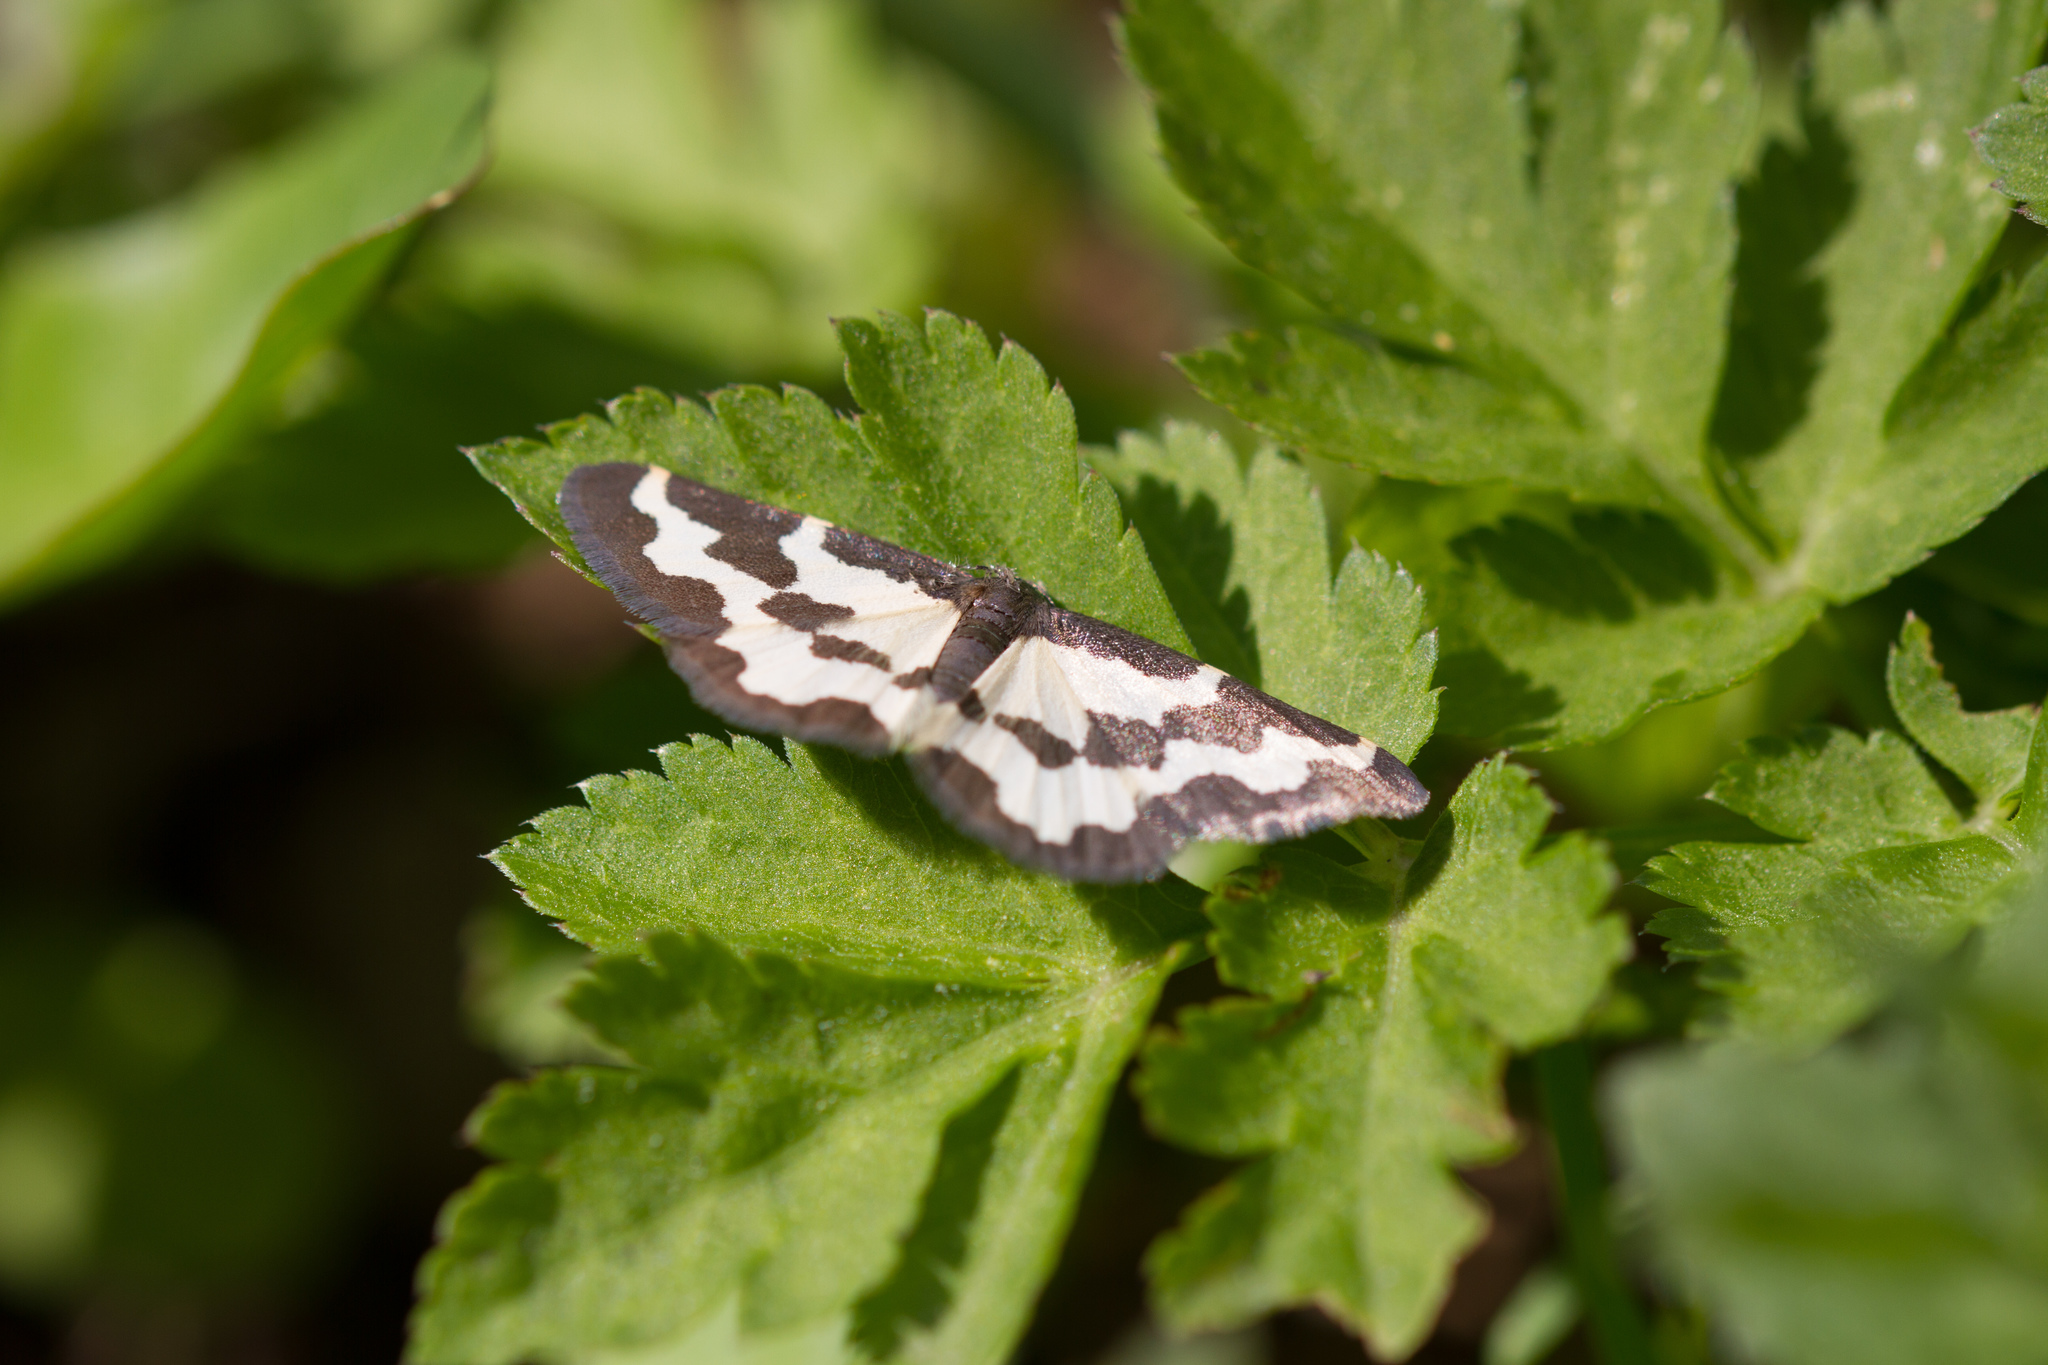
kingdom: Animalia
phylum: Arthropoda
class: Insecta
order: Lepidoptera
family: Geometridae
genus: Lomaspilis
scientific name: Lomaspilis marginata
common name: Clouded border
